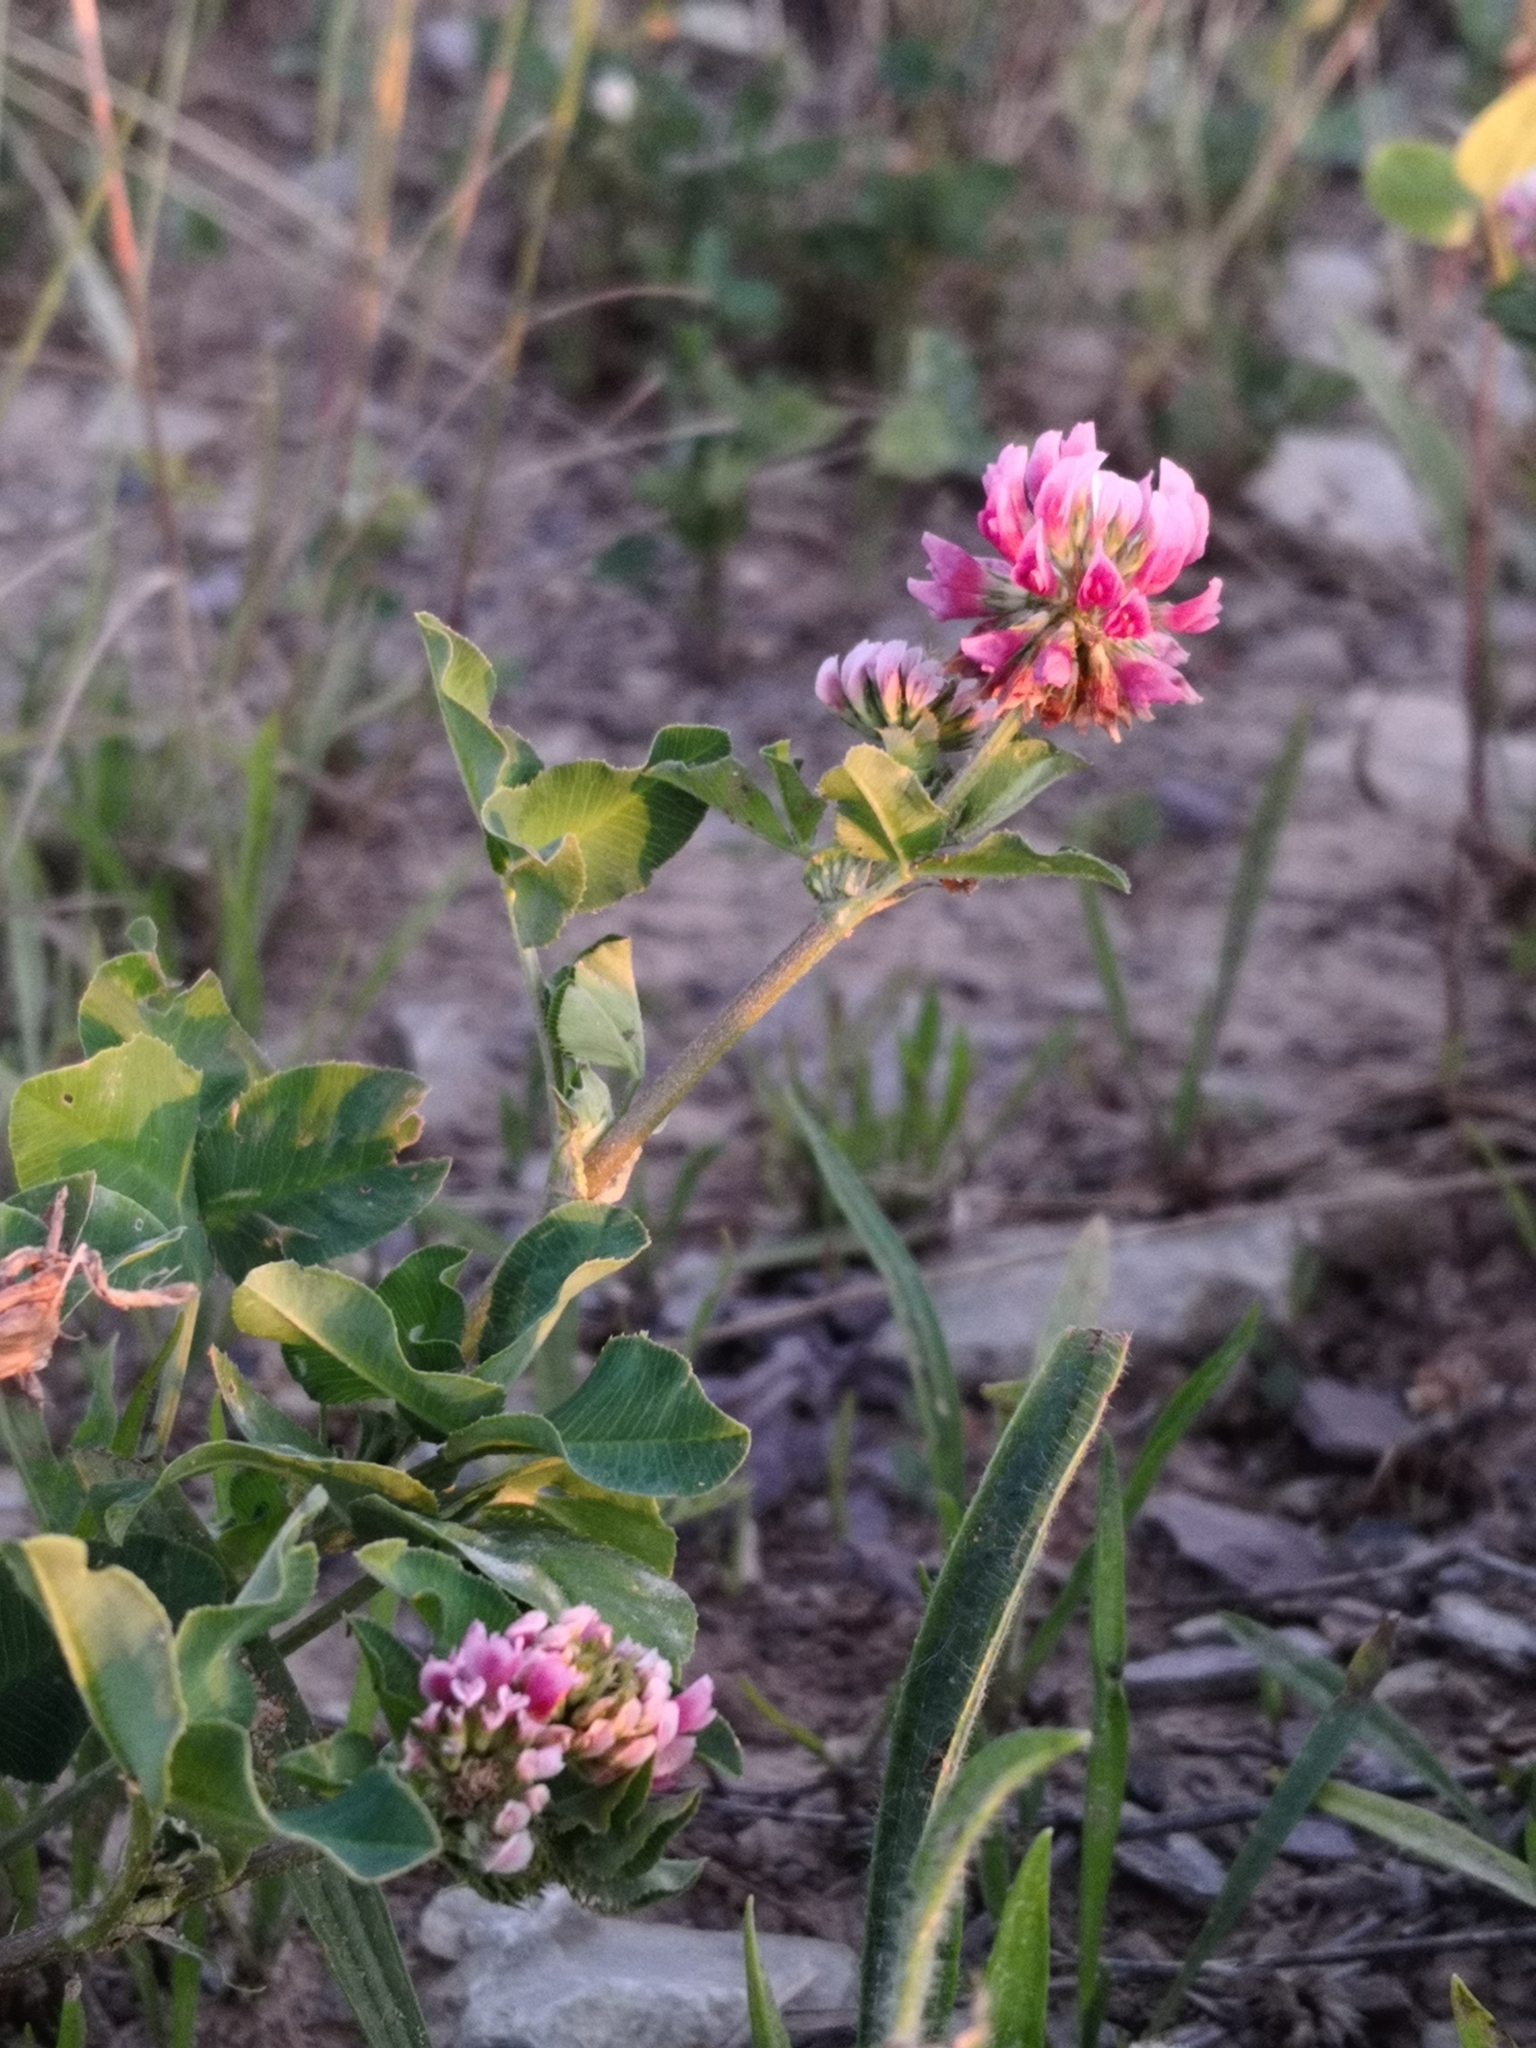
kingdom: Plantae
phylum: Tracheophyta
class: Magnoliopsida
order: Fabales
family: Fabaceae
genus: Trifolium
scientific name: Trifolium pratense
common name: Red clover
